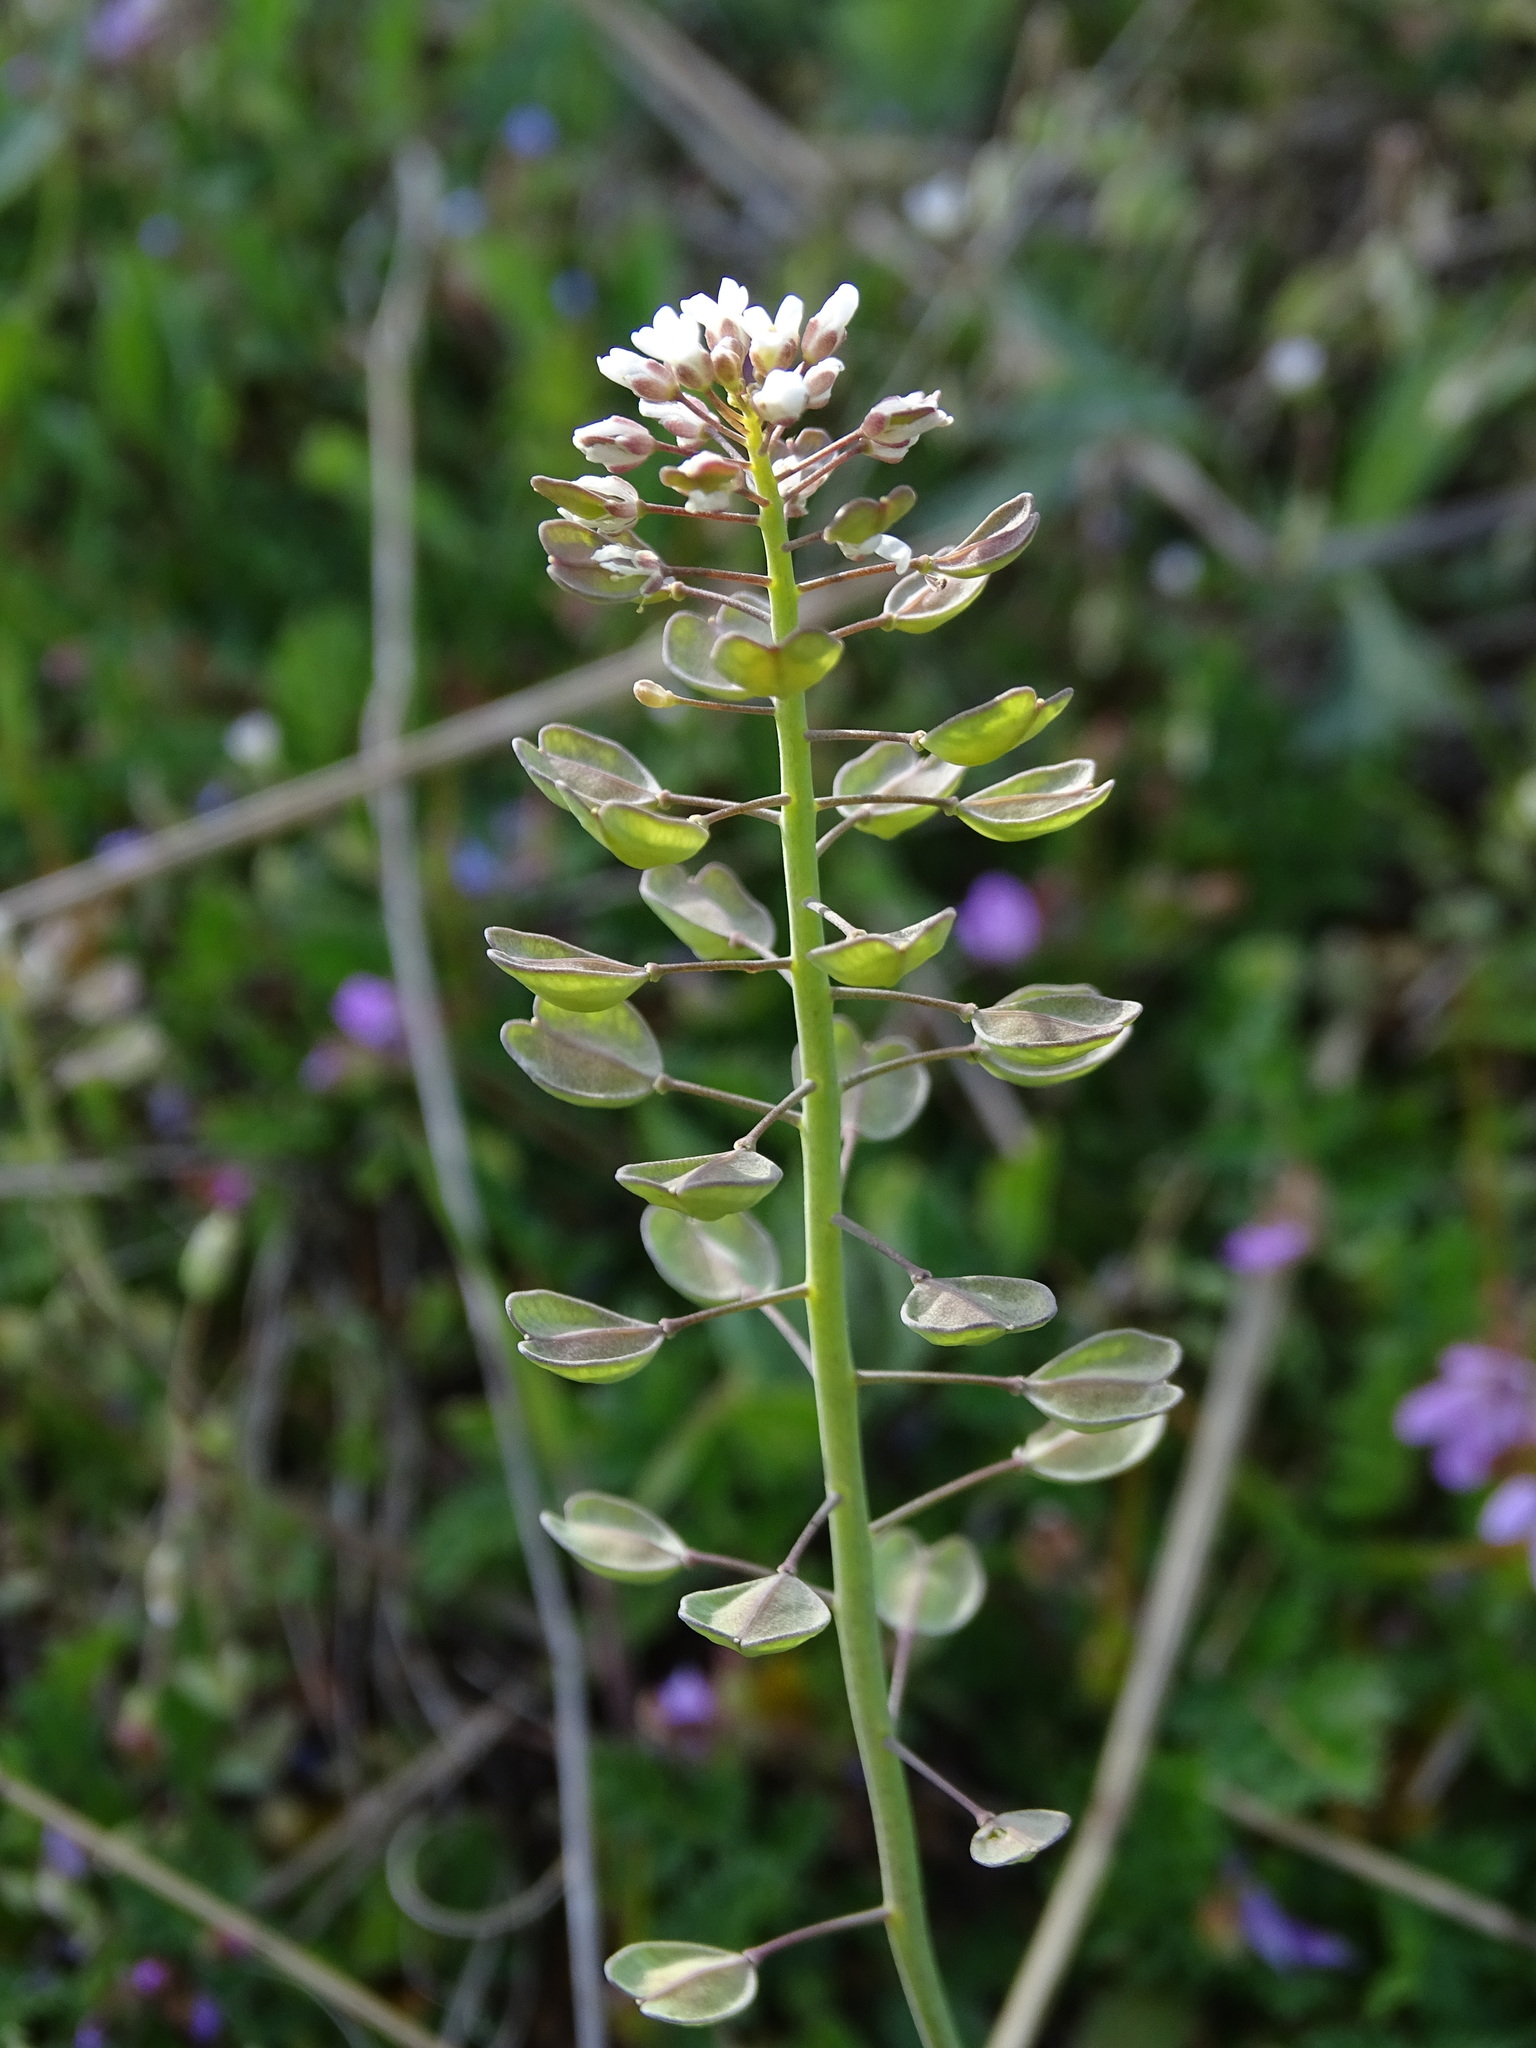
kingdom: Plantae
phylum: Tracheophyta
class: Magnoliopsida
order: Brassicales
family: Brassicaceae
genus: Noccaea
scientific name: Noccaea perfoliata
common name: Perfoliate pennycress
